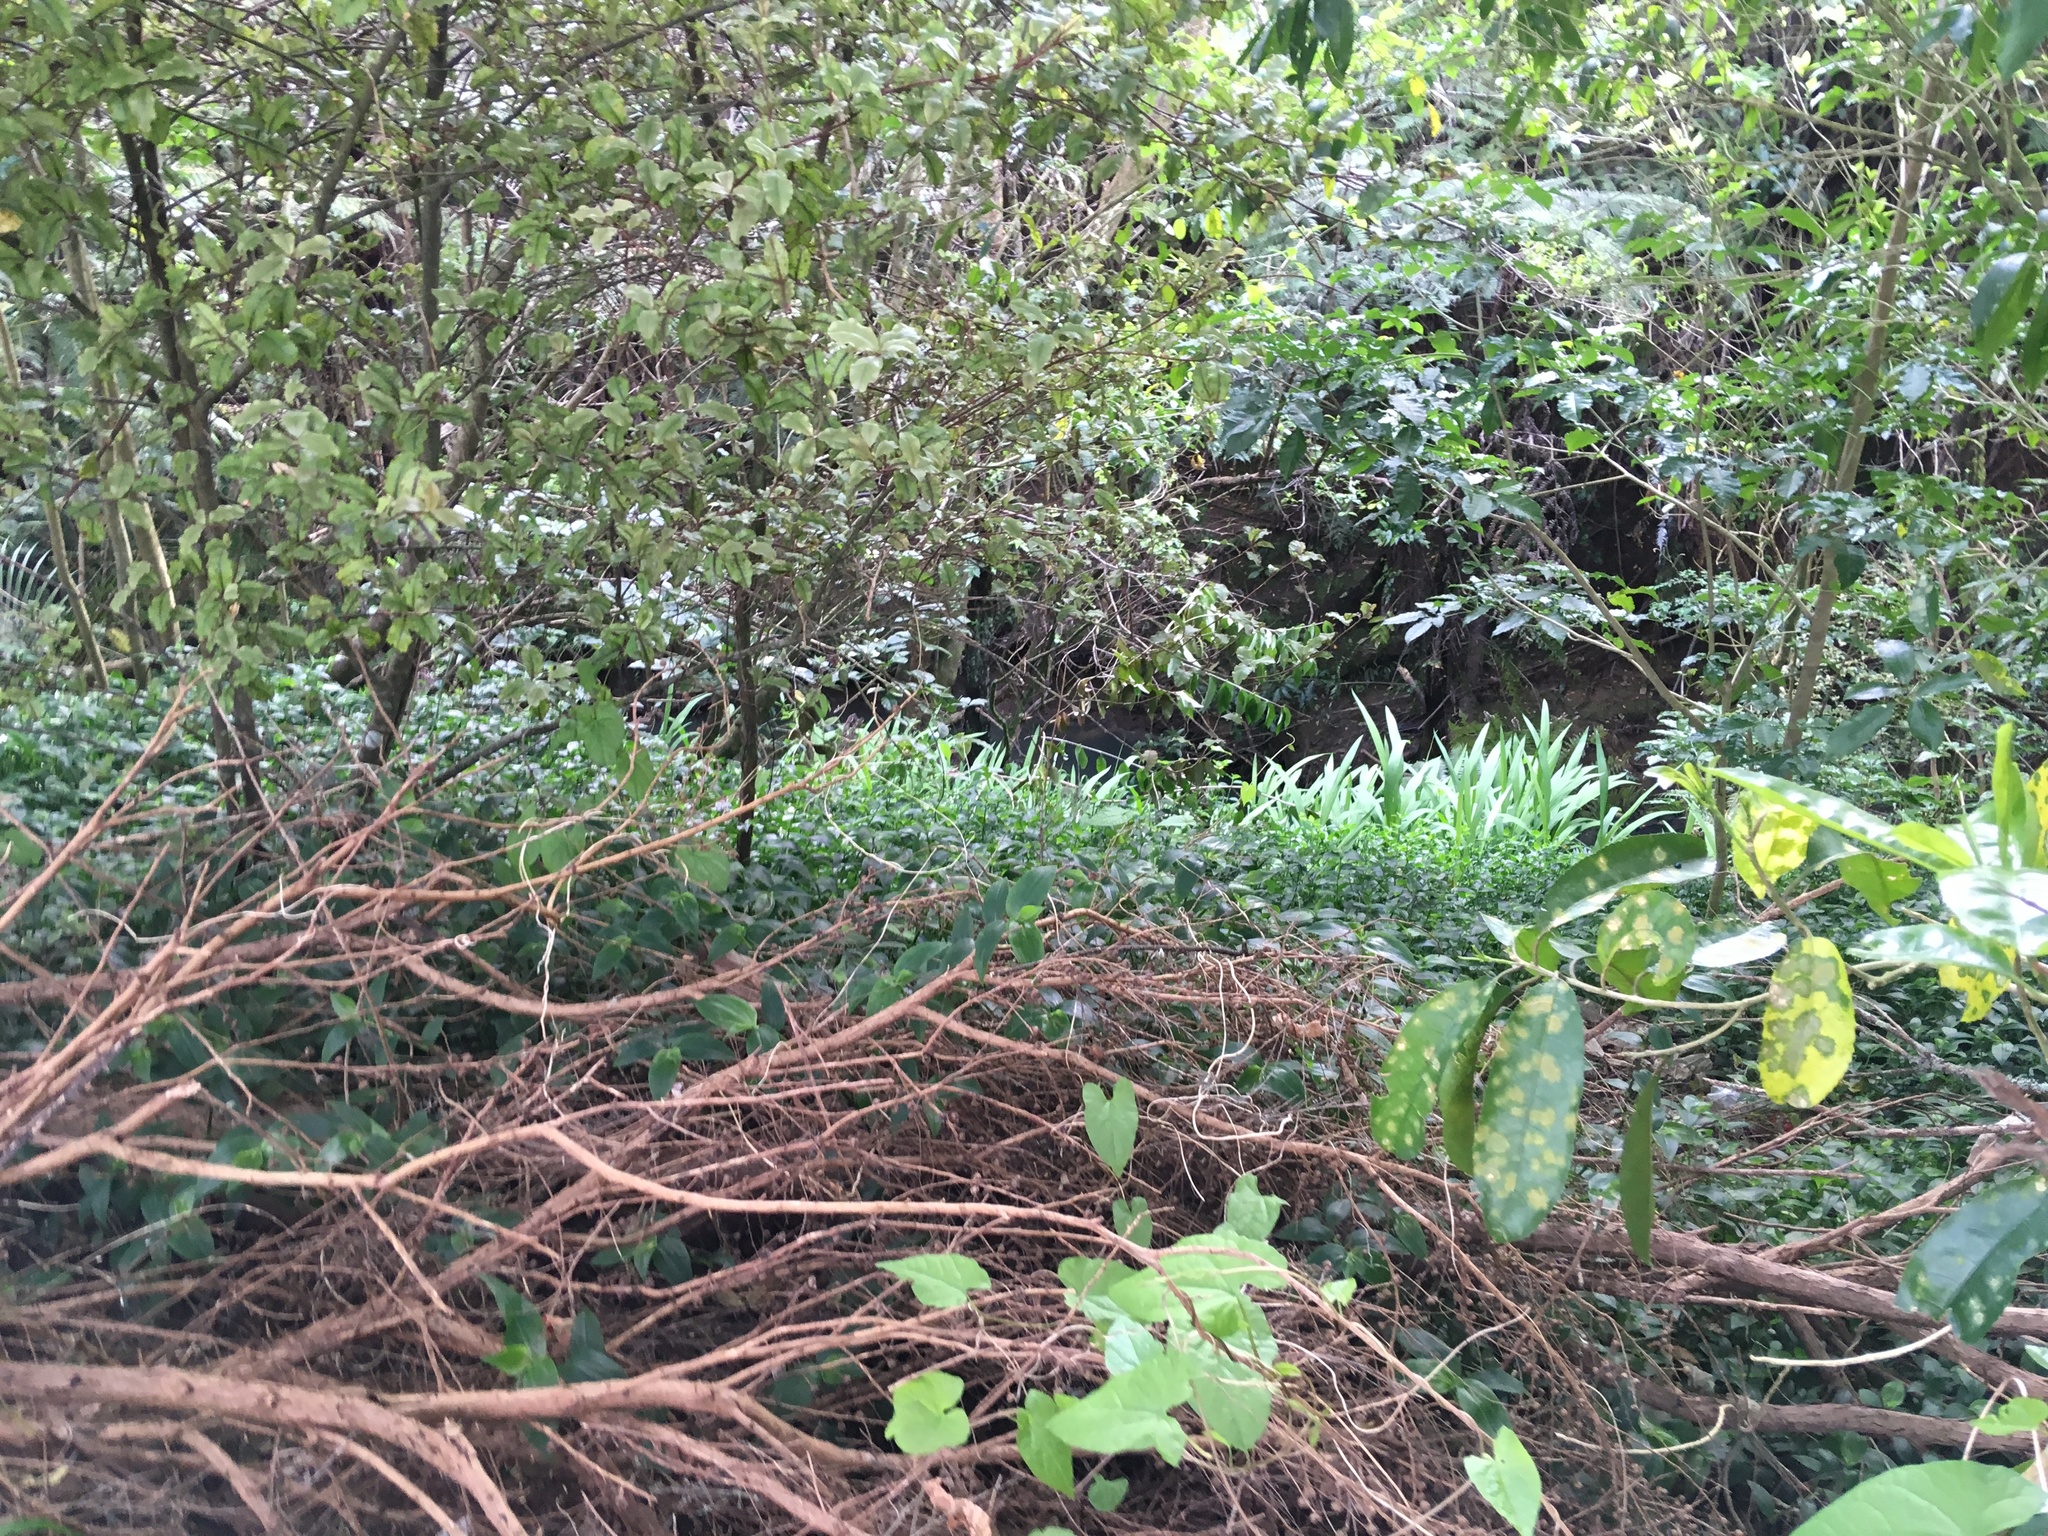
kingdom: Plantae
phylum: Tracheophyta
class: Liliopsida
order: Asparagales
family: Iridaceae
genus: Crocosmia
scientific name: Crocosmia crocosmiiflora
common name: Montbretia
